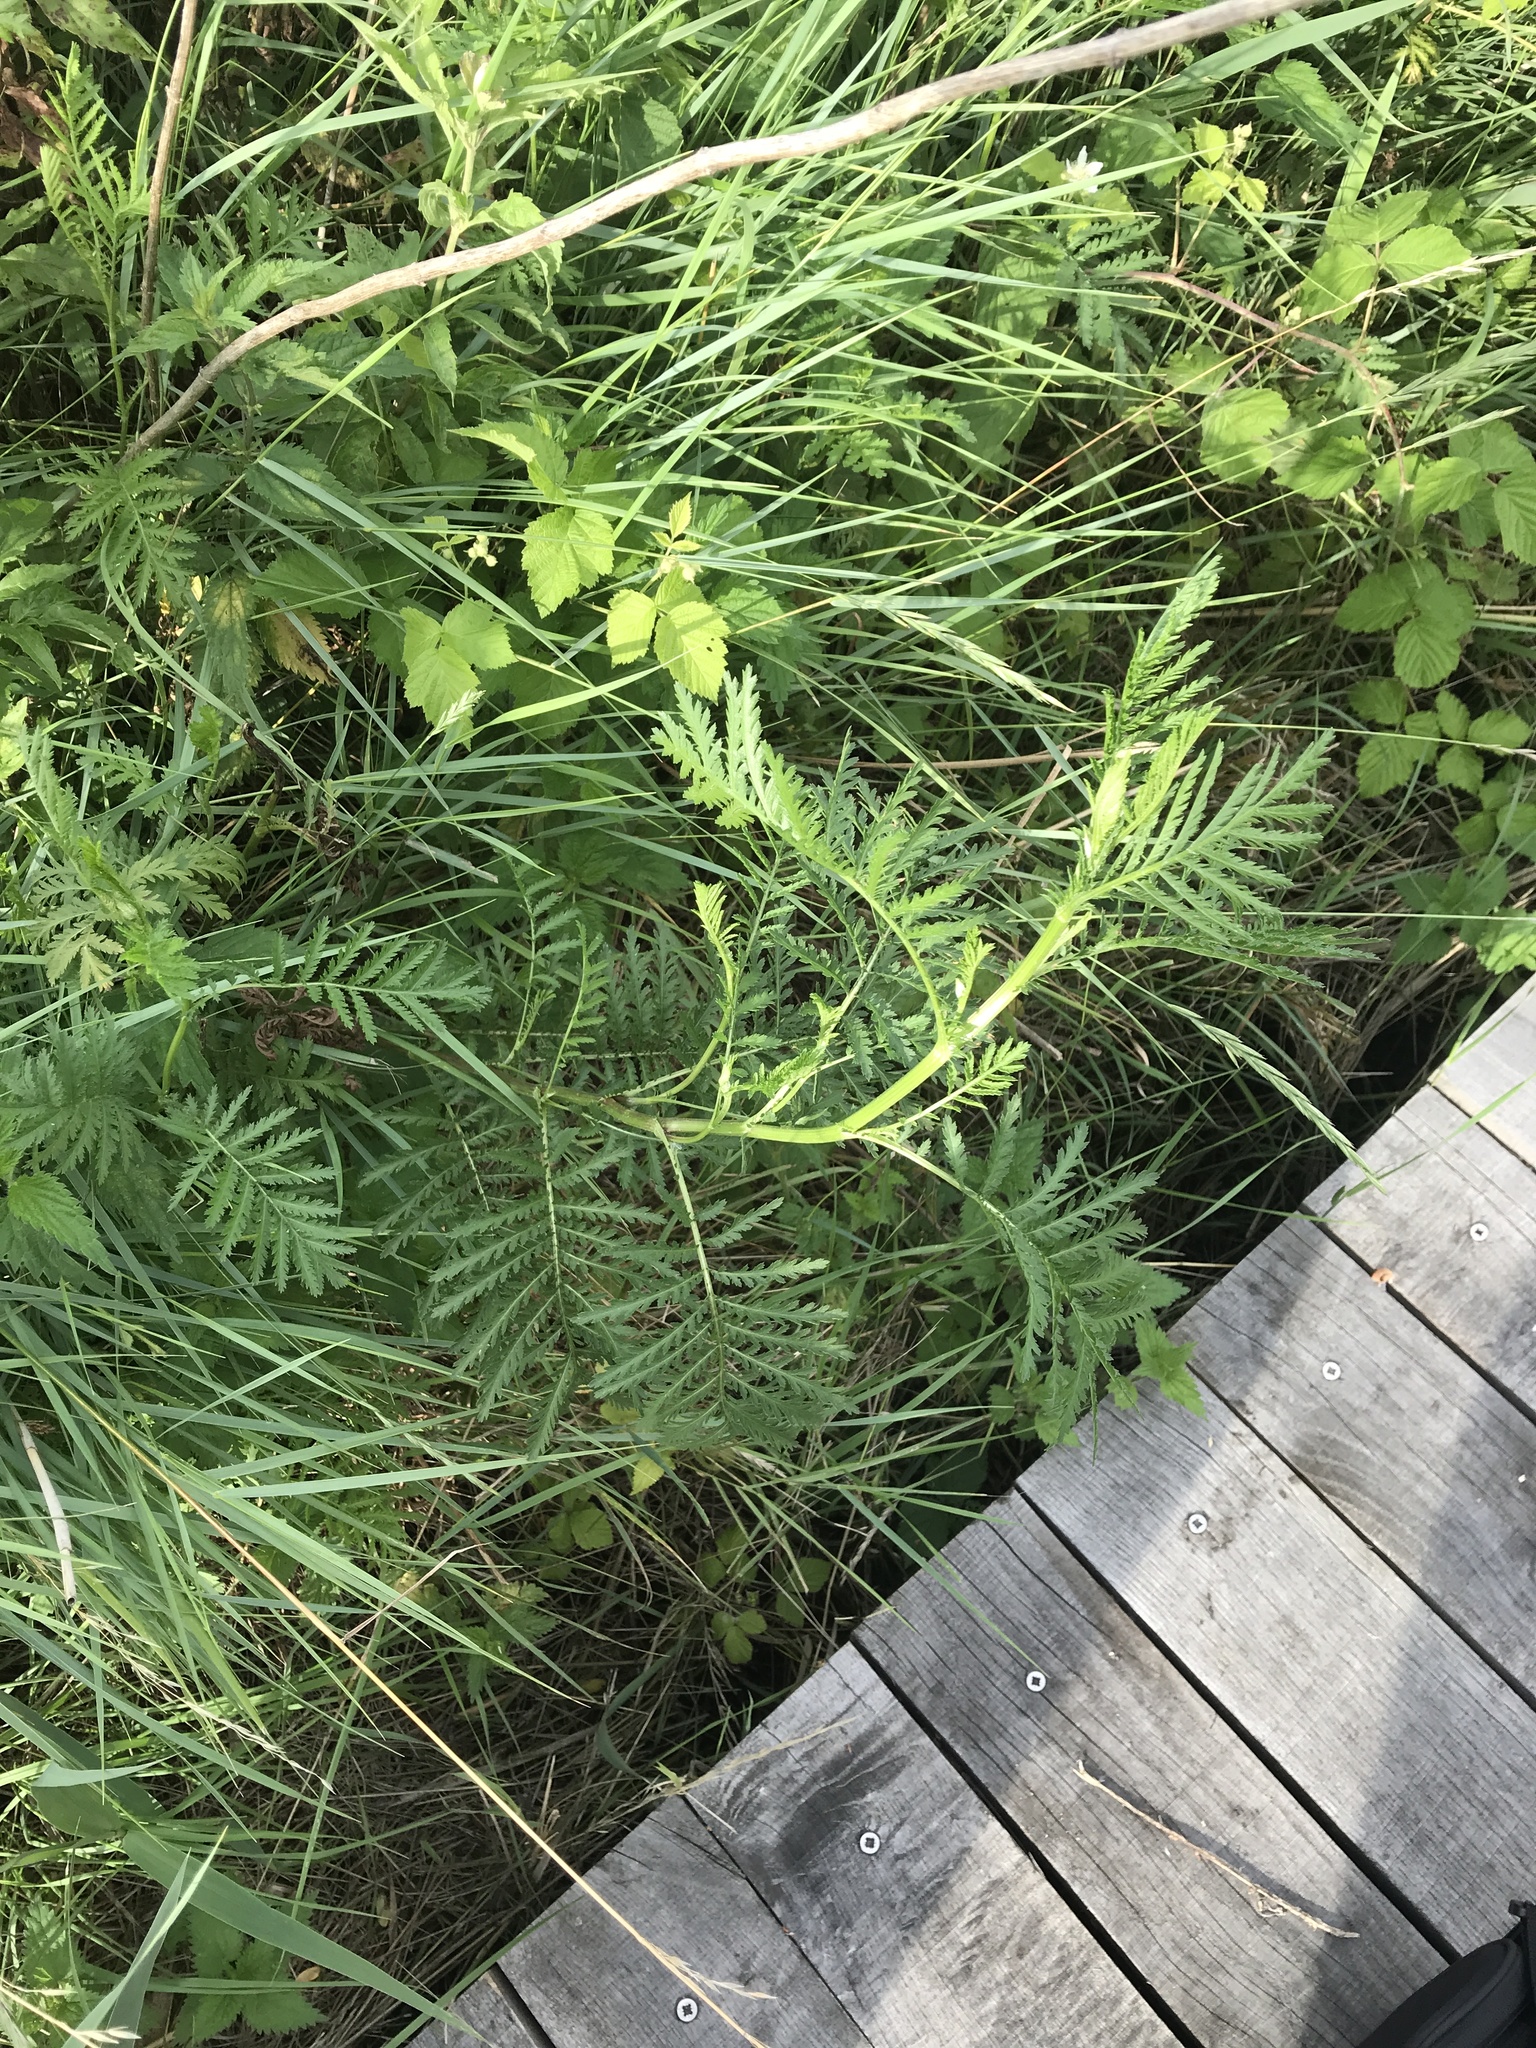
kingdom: Plantae
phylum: Tracheophyta
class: Magnoliopsida
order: Asterales
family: Asteraceae
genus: Tanacetum
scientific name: Tanacetum vulgare
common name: Common tansy
